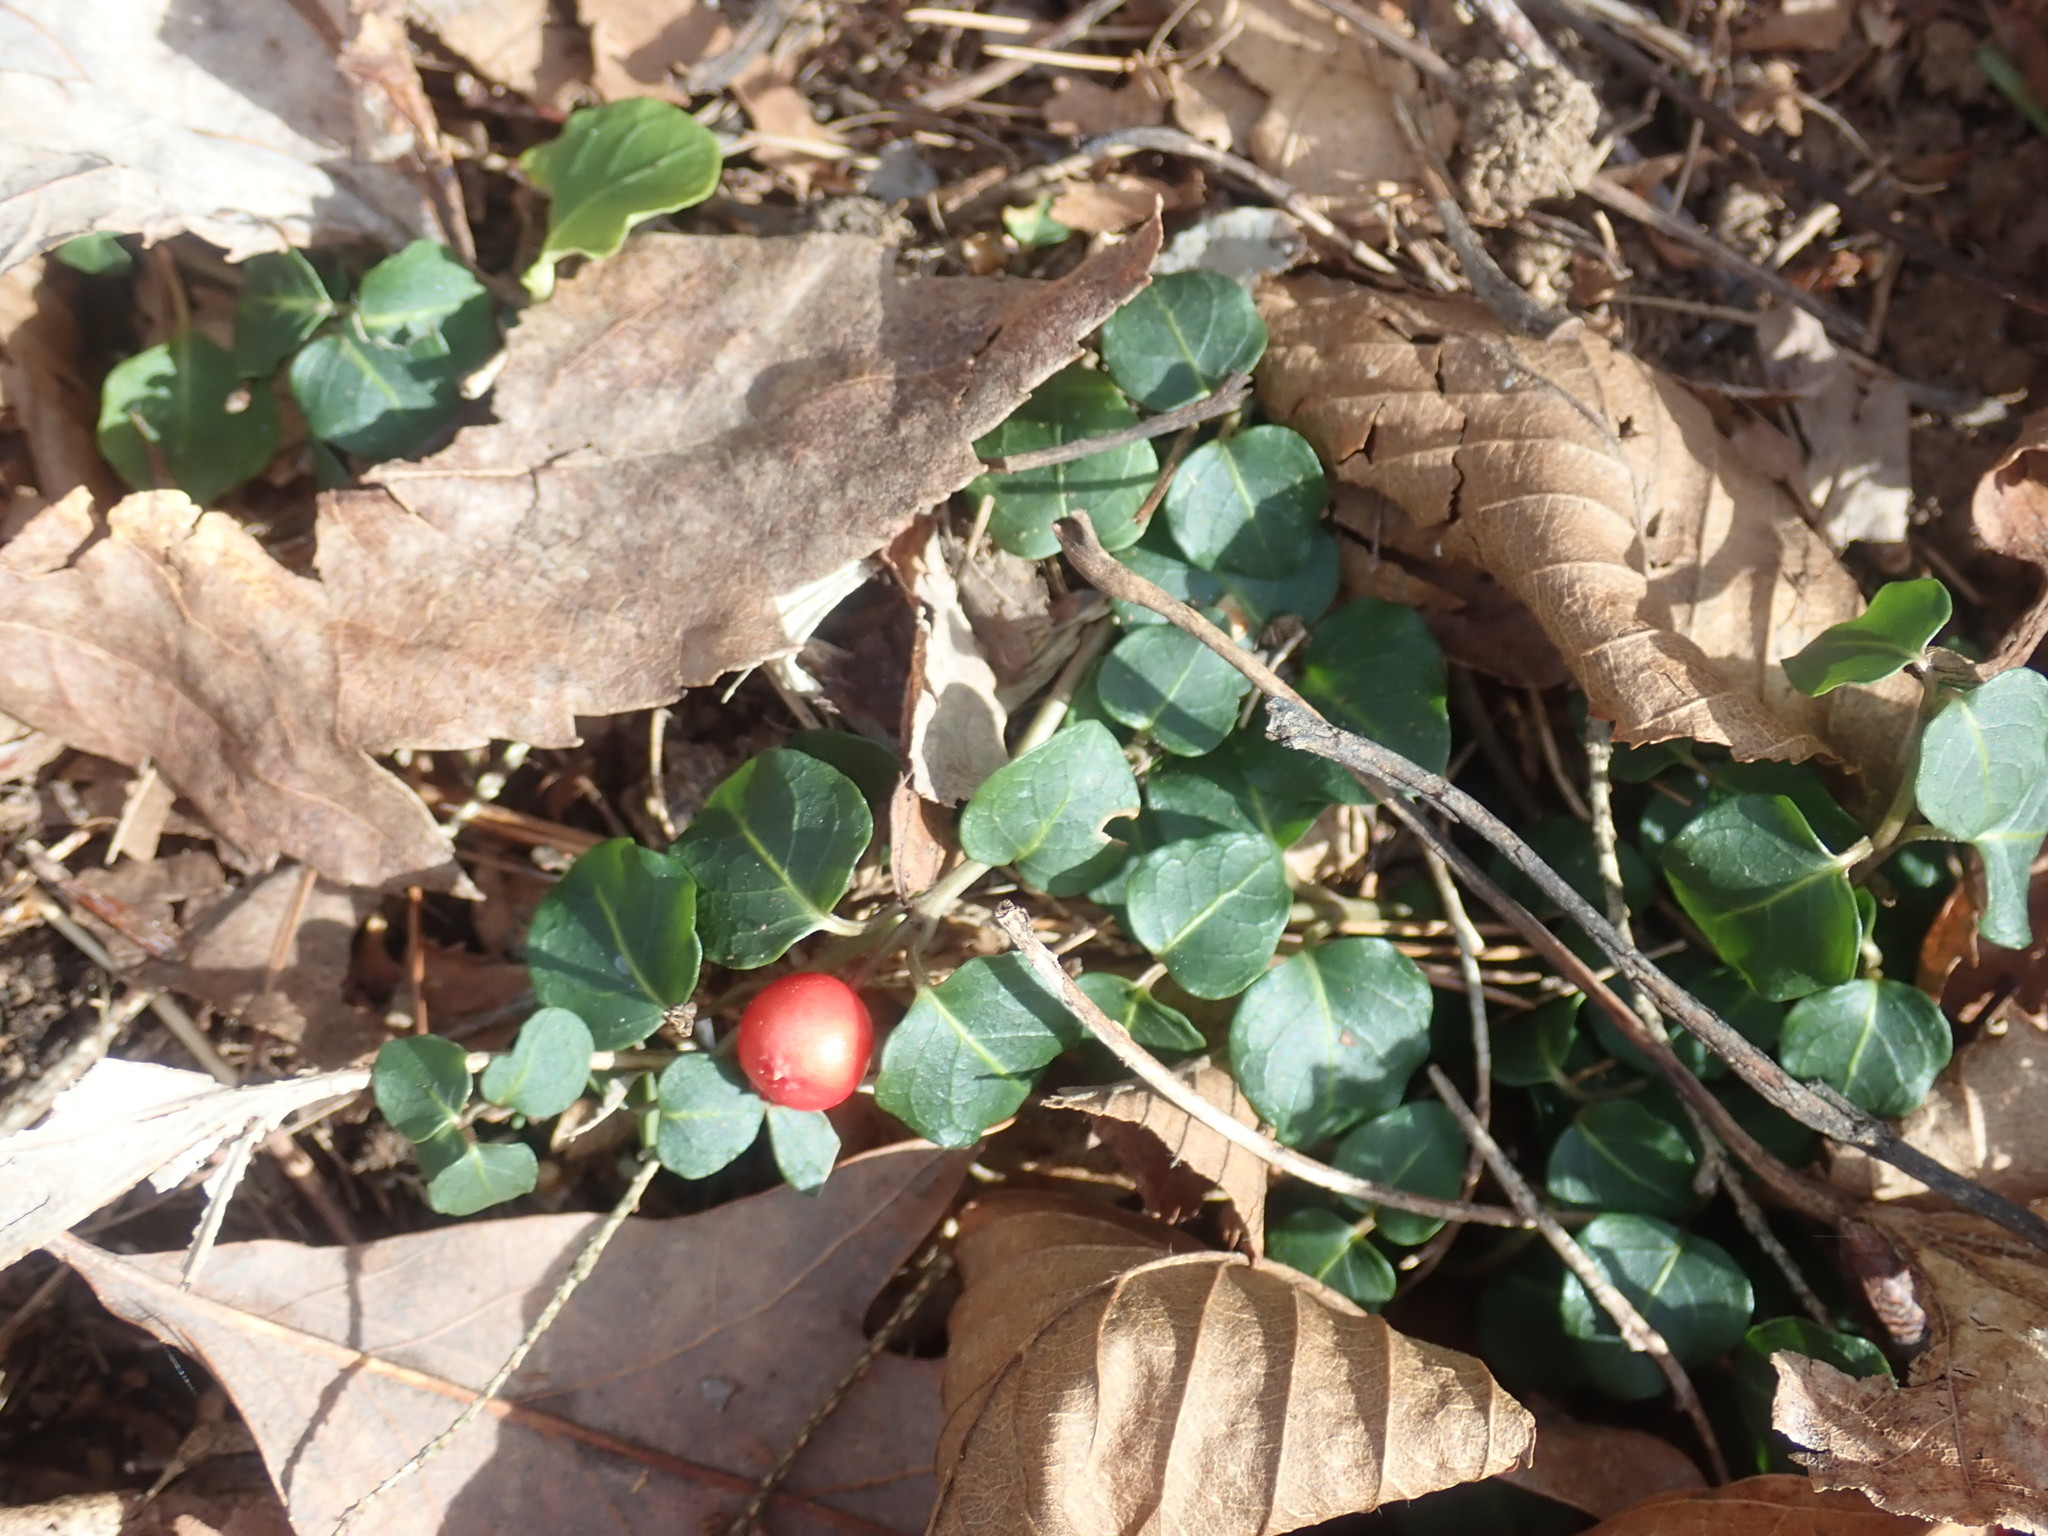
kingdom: Plantae
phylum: Tracheophyta
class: Magnoliopsida
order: Gentianales
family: Rubiaceae
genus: Mitchella
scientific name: Mitchella repens
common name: Partridge-berry
